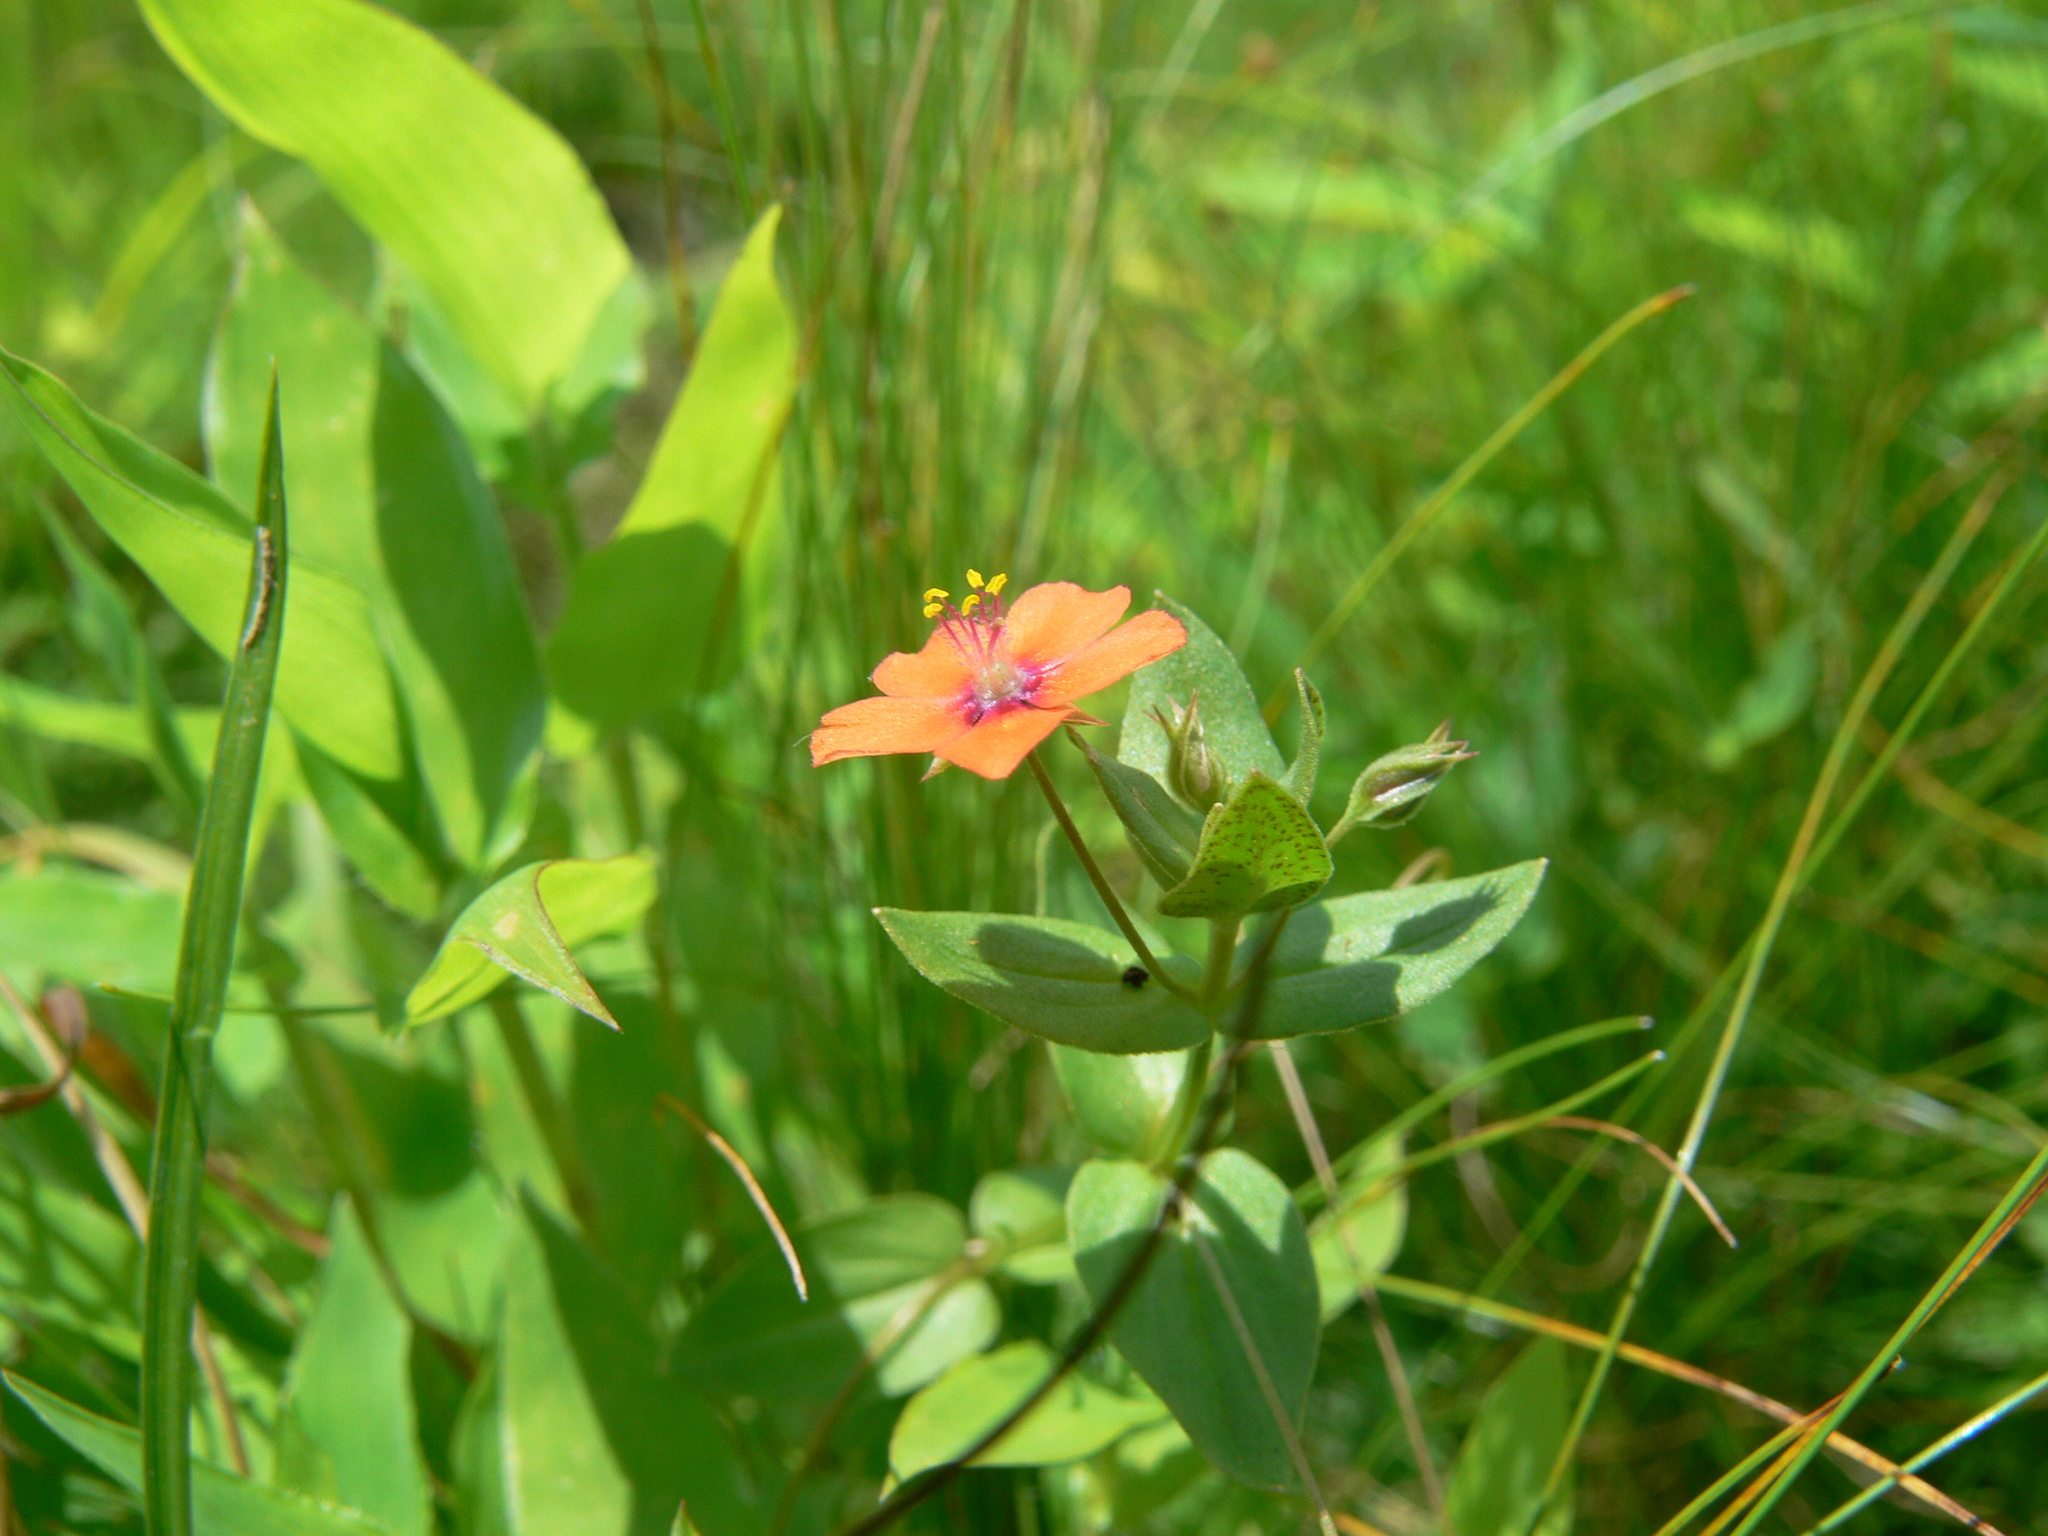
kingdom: Plantae
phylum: Tracheophyta
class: Magnoliopsida
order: Ericales
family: Primulaceae
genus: Lysimachia
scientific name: Lysimachia arvensis
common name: Scarlet pimpernel
